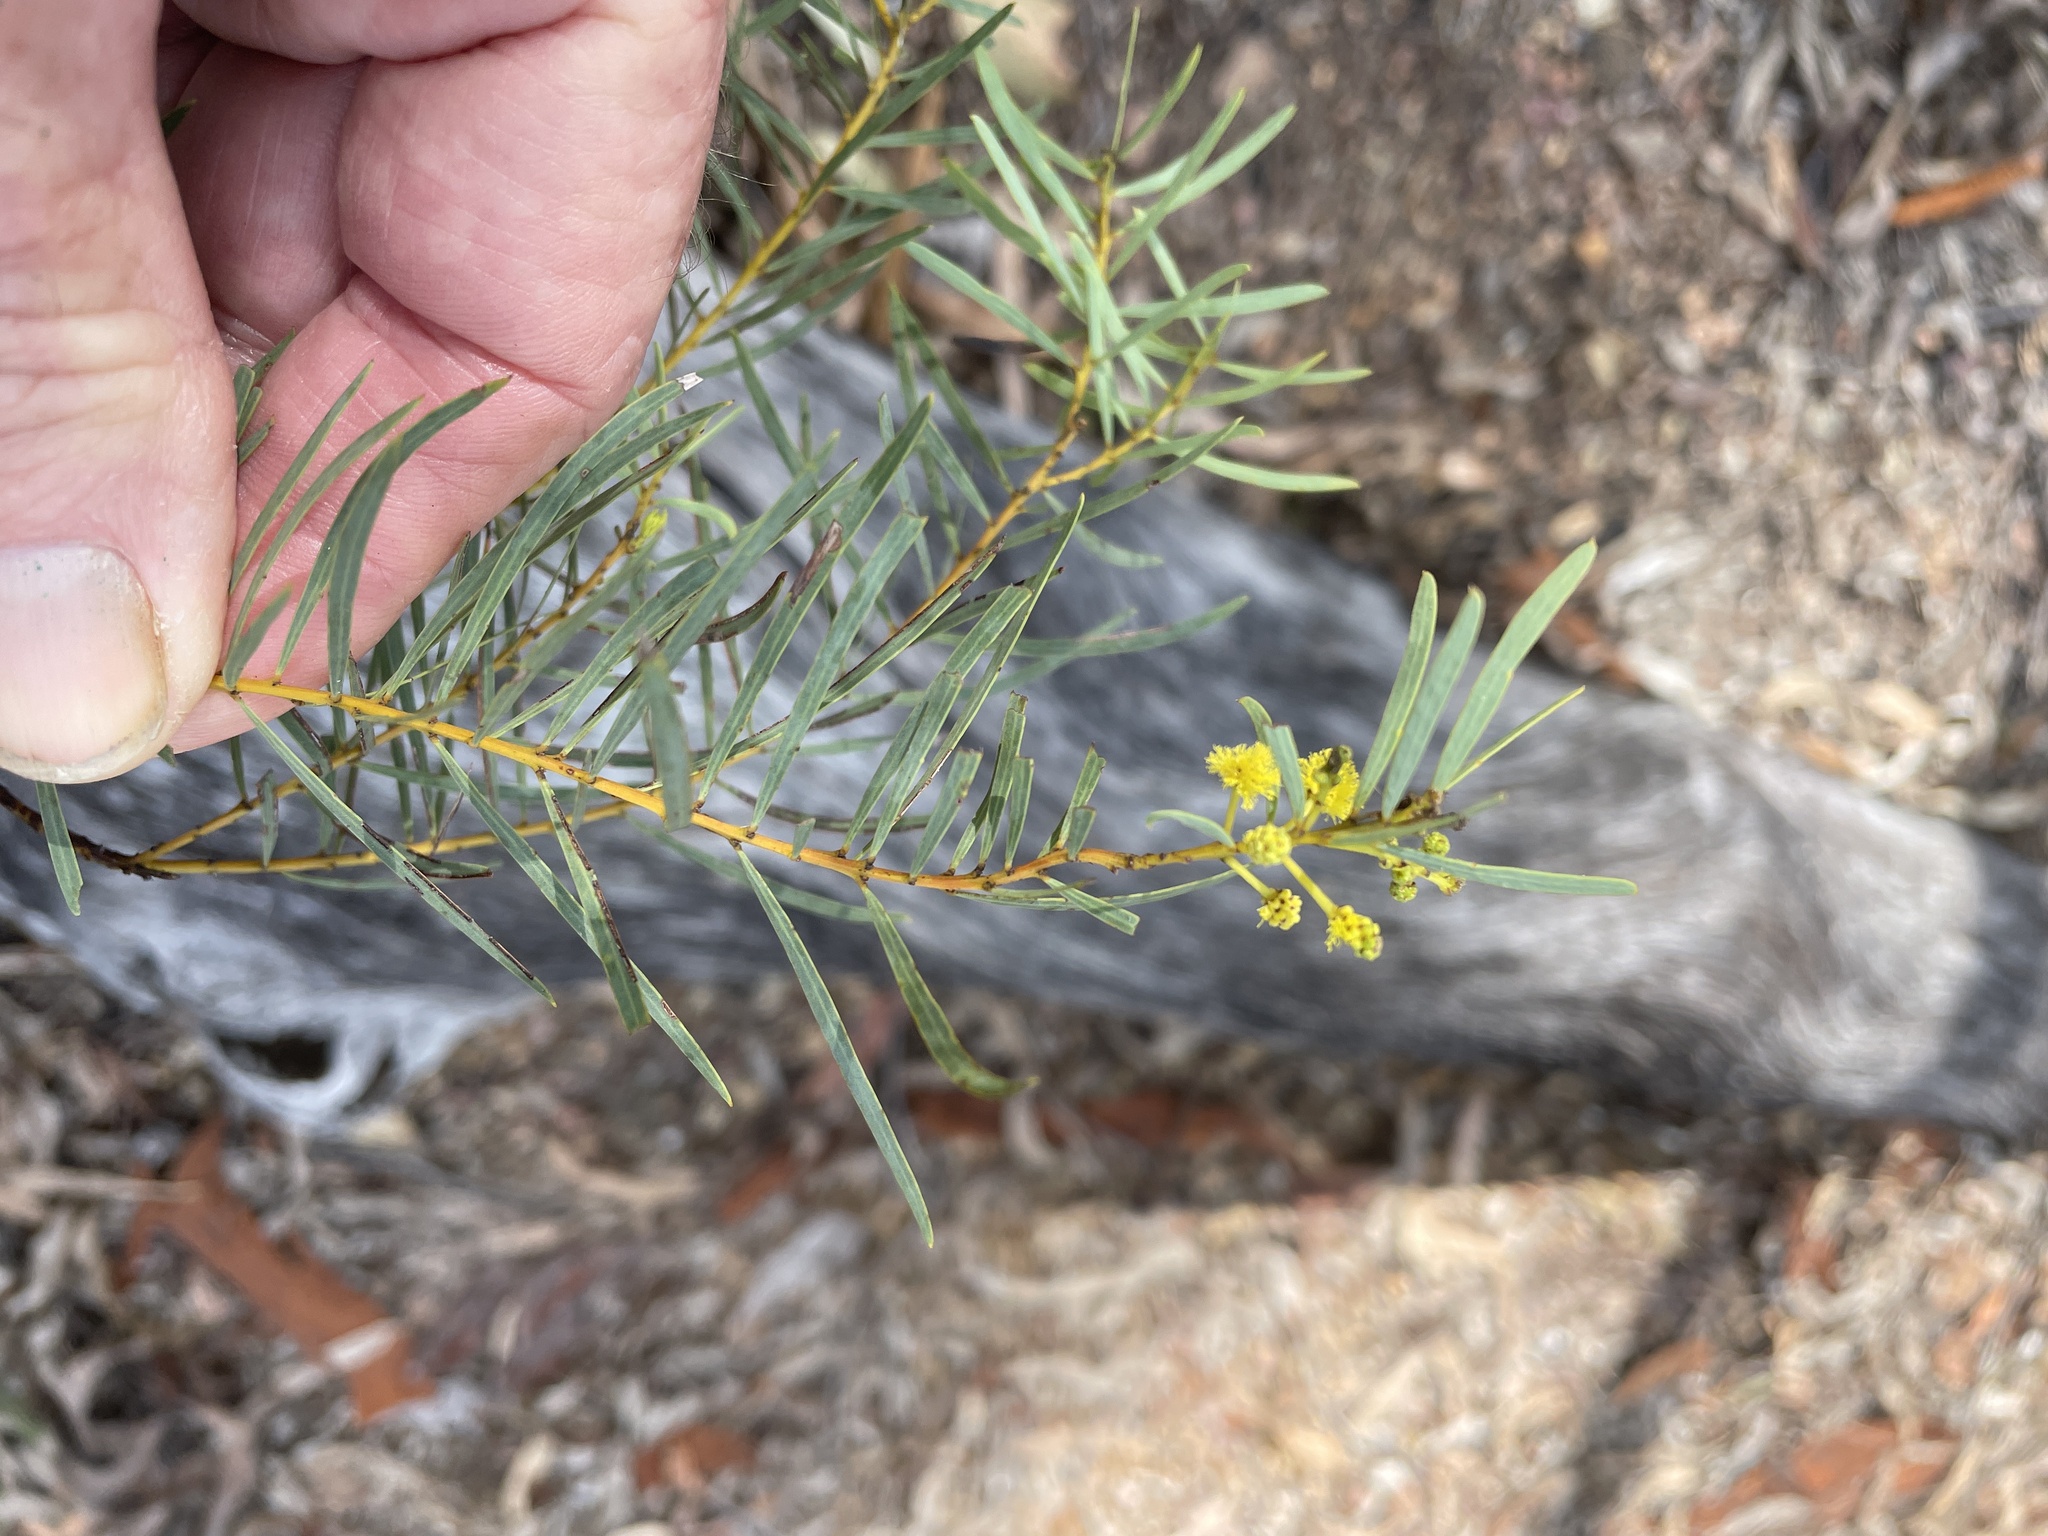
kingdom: Plantae
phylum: Tracheophyta
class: Magnoliopsida
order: Fabales
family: Fabaceae
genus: Acacia
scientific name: Acacia decora
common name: Showy wattle
